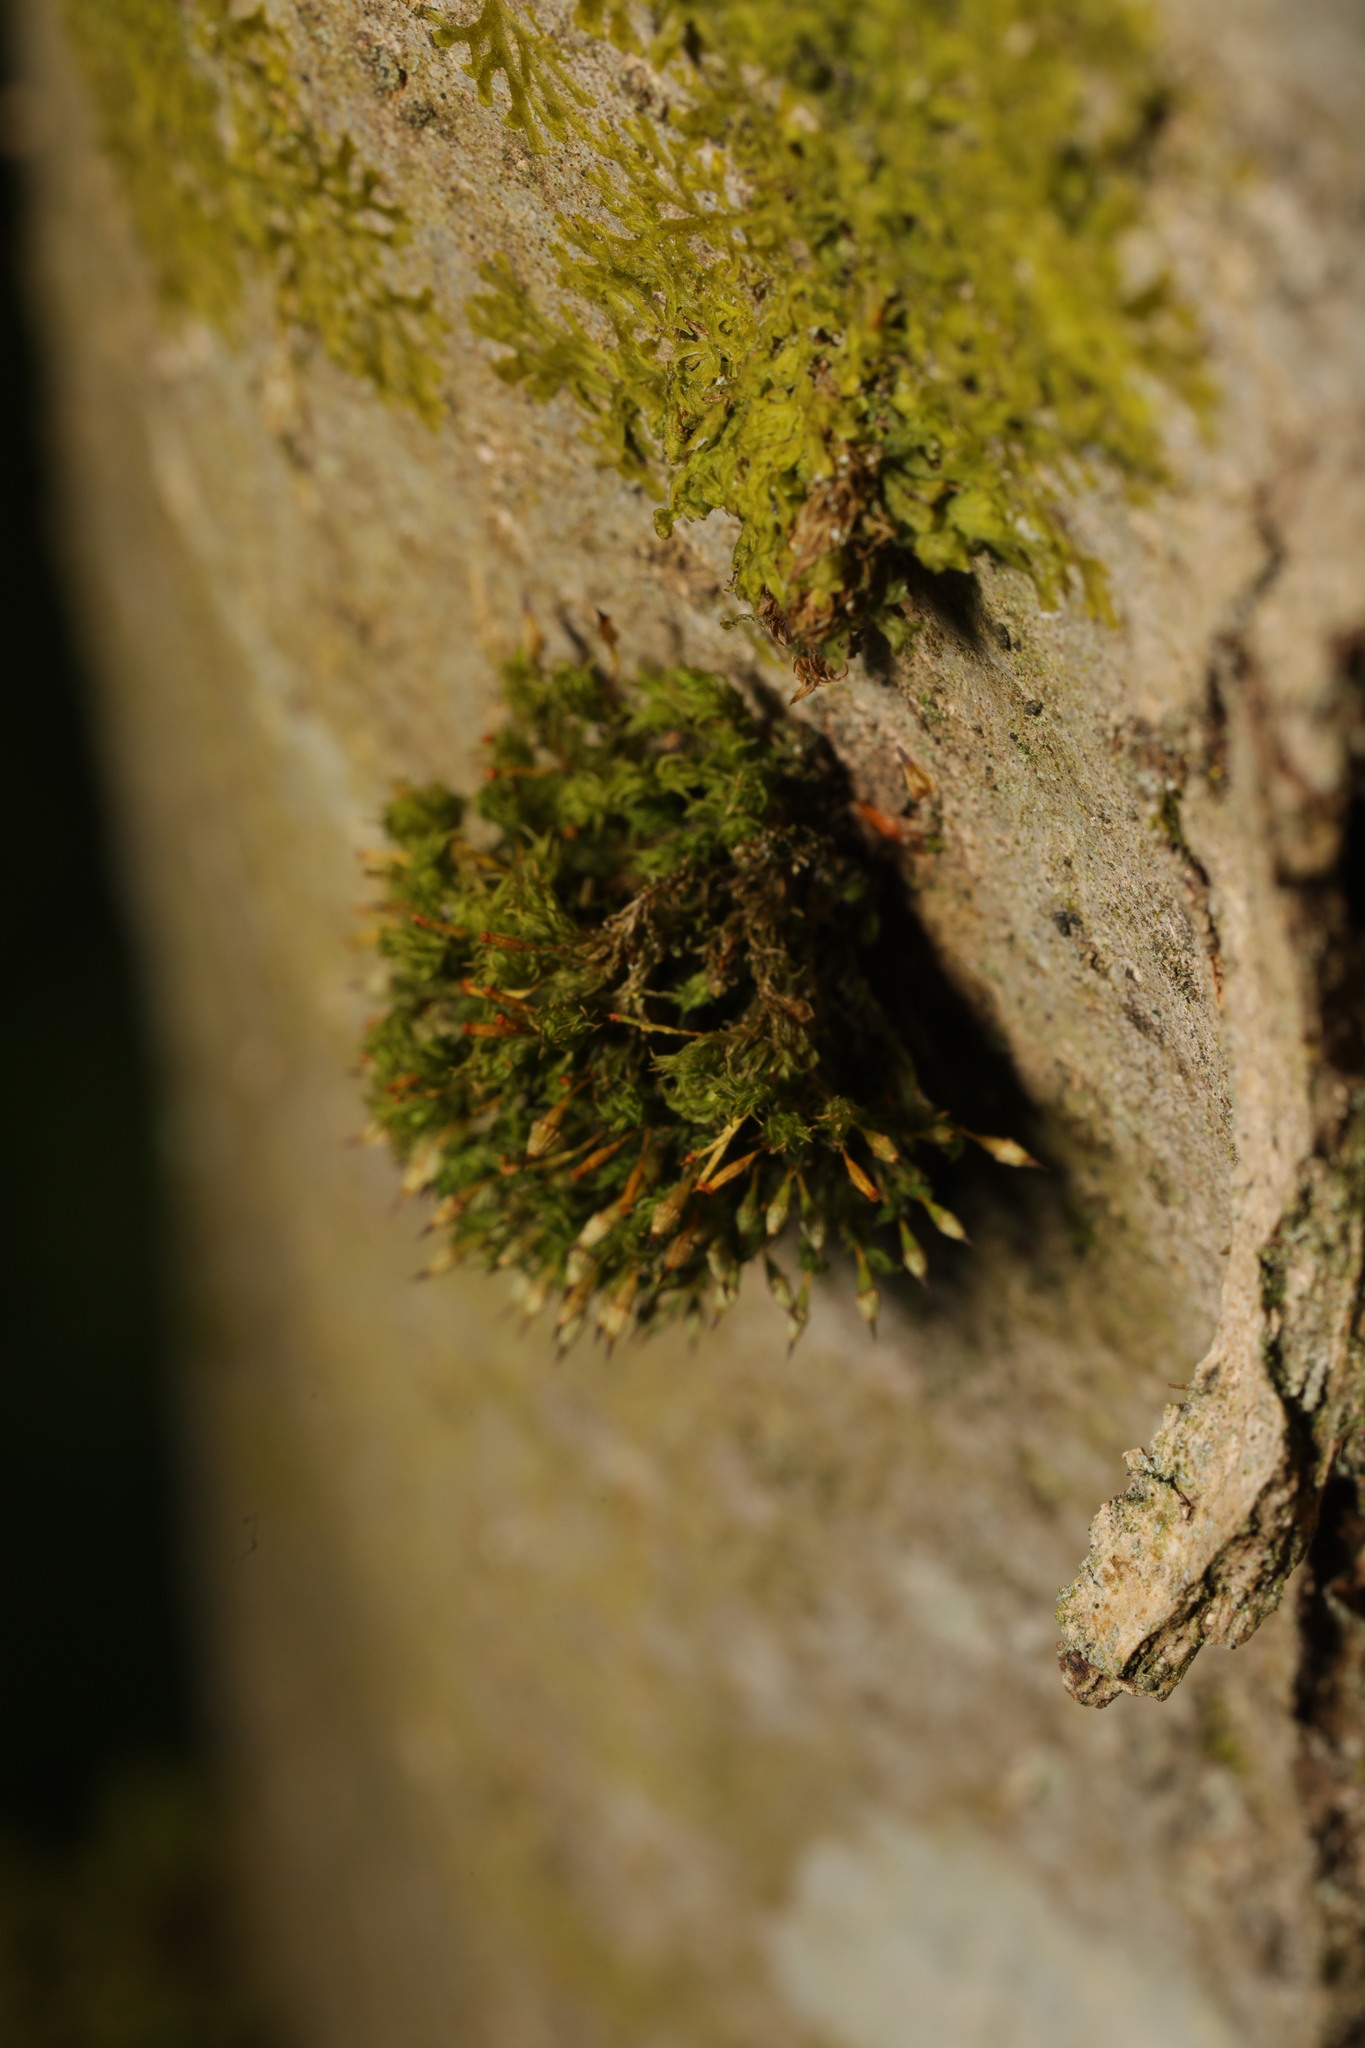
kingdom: Plantae
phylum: Bryophyta
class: Bryopsida
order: Orthotrichales
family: Orthotrichaceae
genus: Orthotrichum
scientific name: Orthotrichum pulchellum
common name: Elegant bristle-moss
